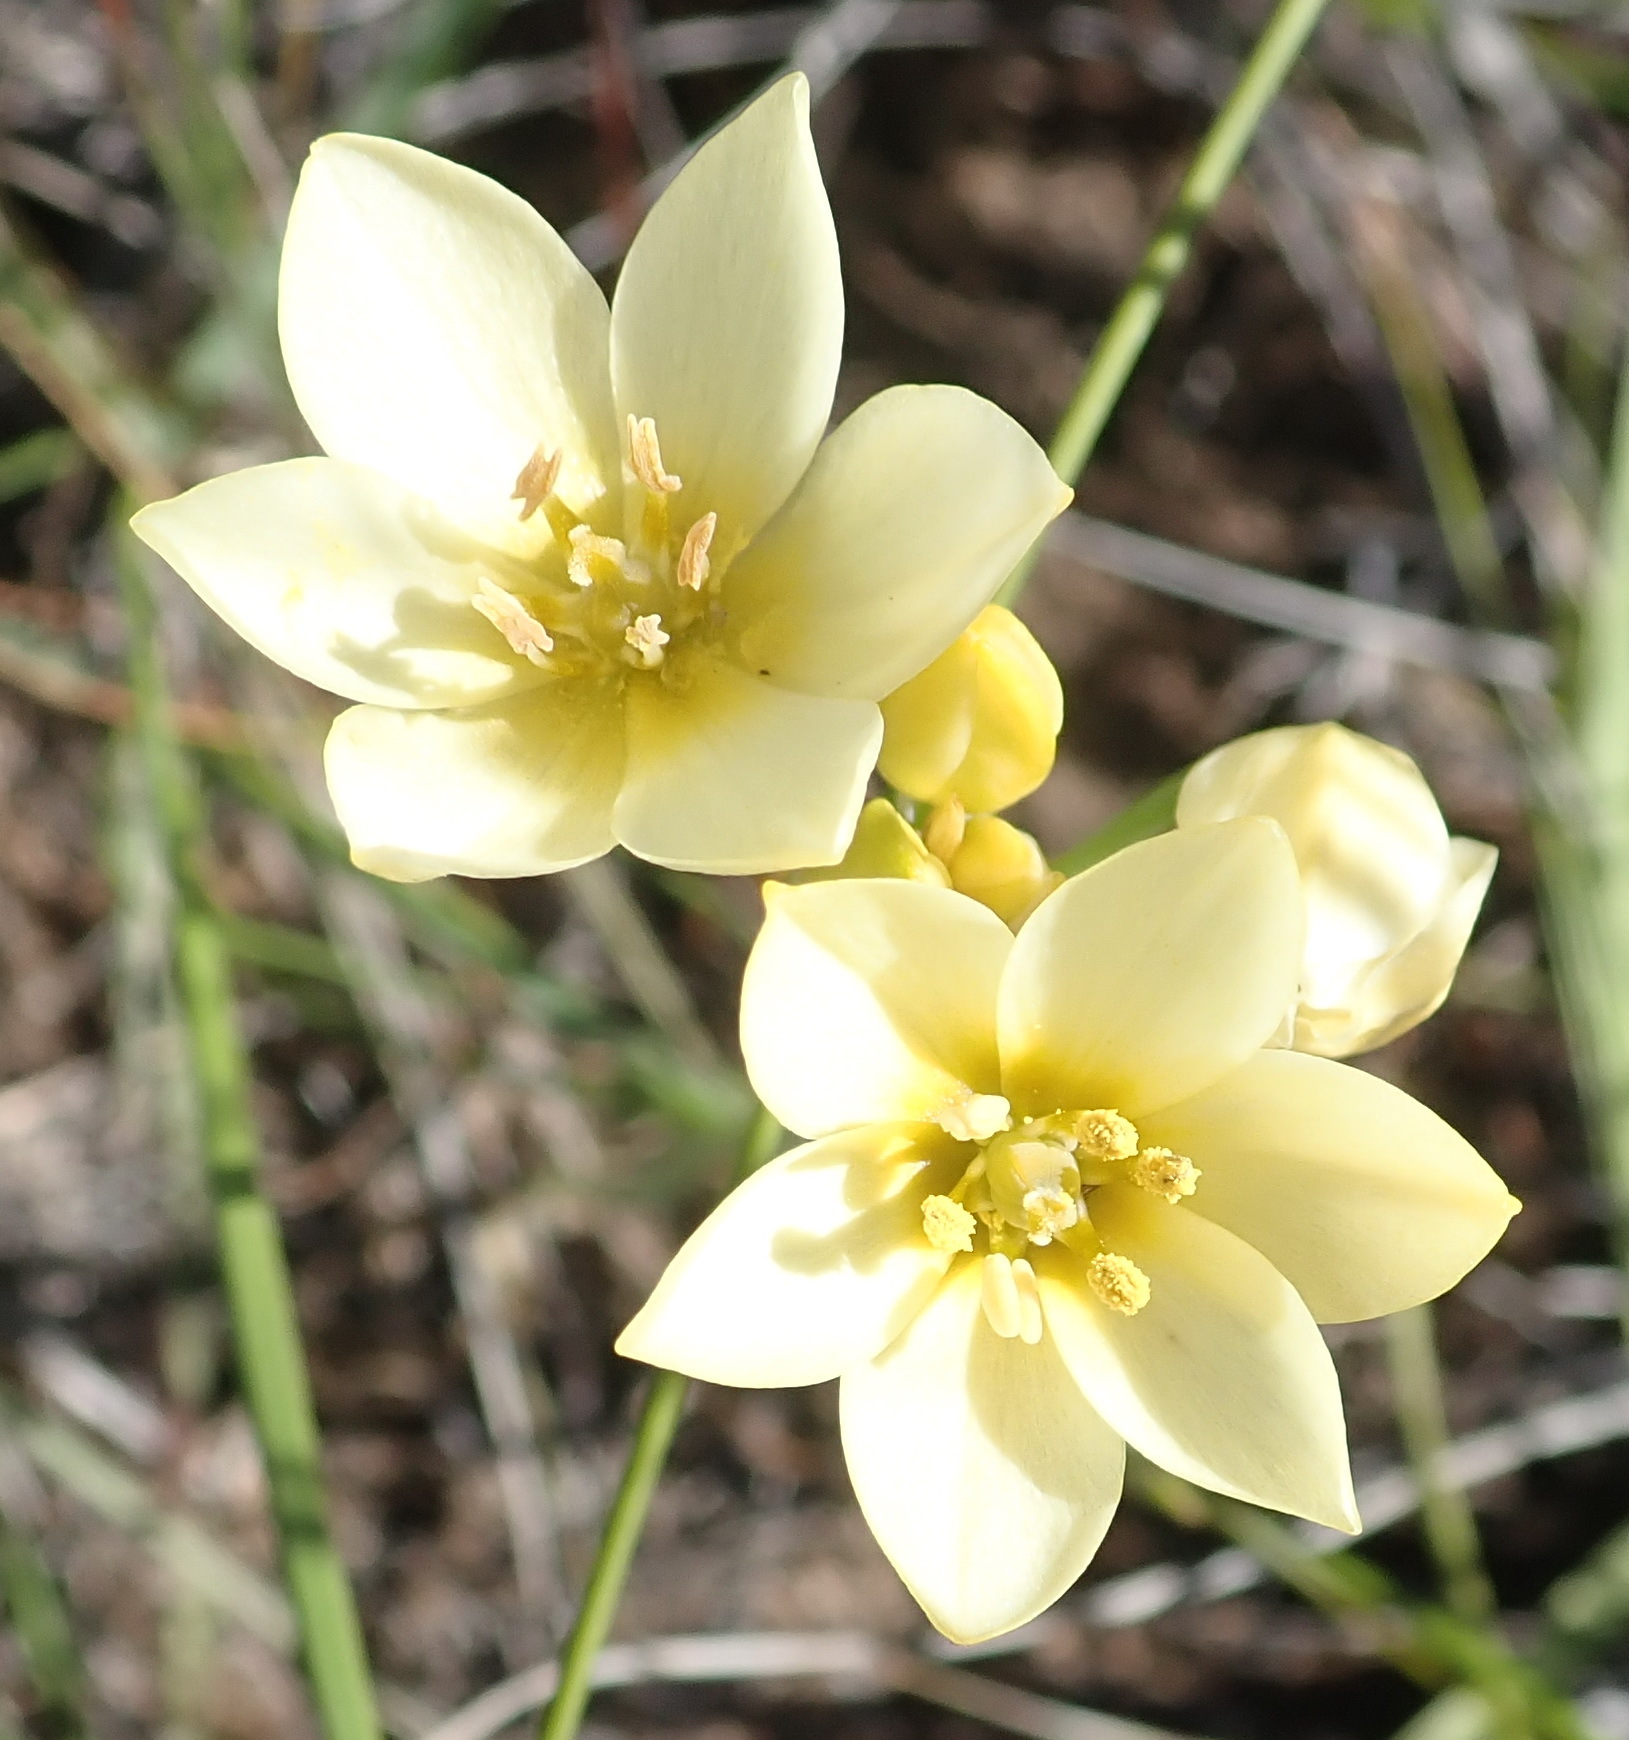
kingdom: Plantae
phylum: Tracheophyta
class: Liliopsida
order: Asparagales
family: Asparagaceae
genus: Ornithogalum
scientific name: Ornithogalum dubium
